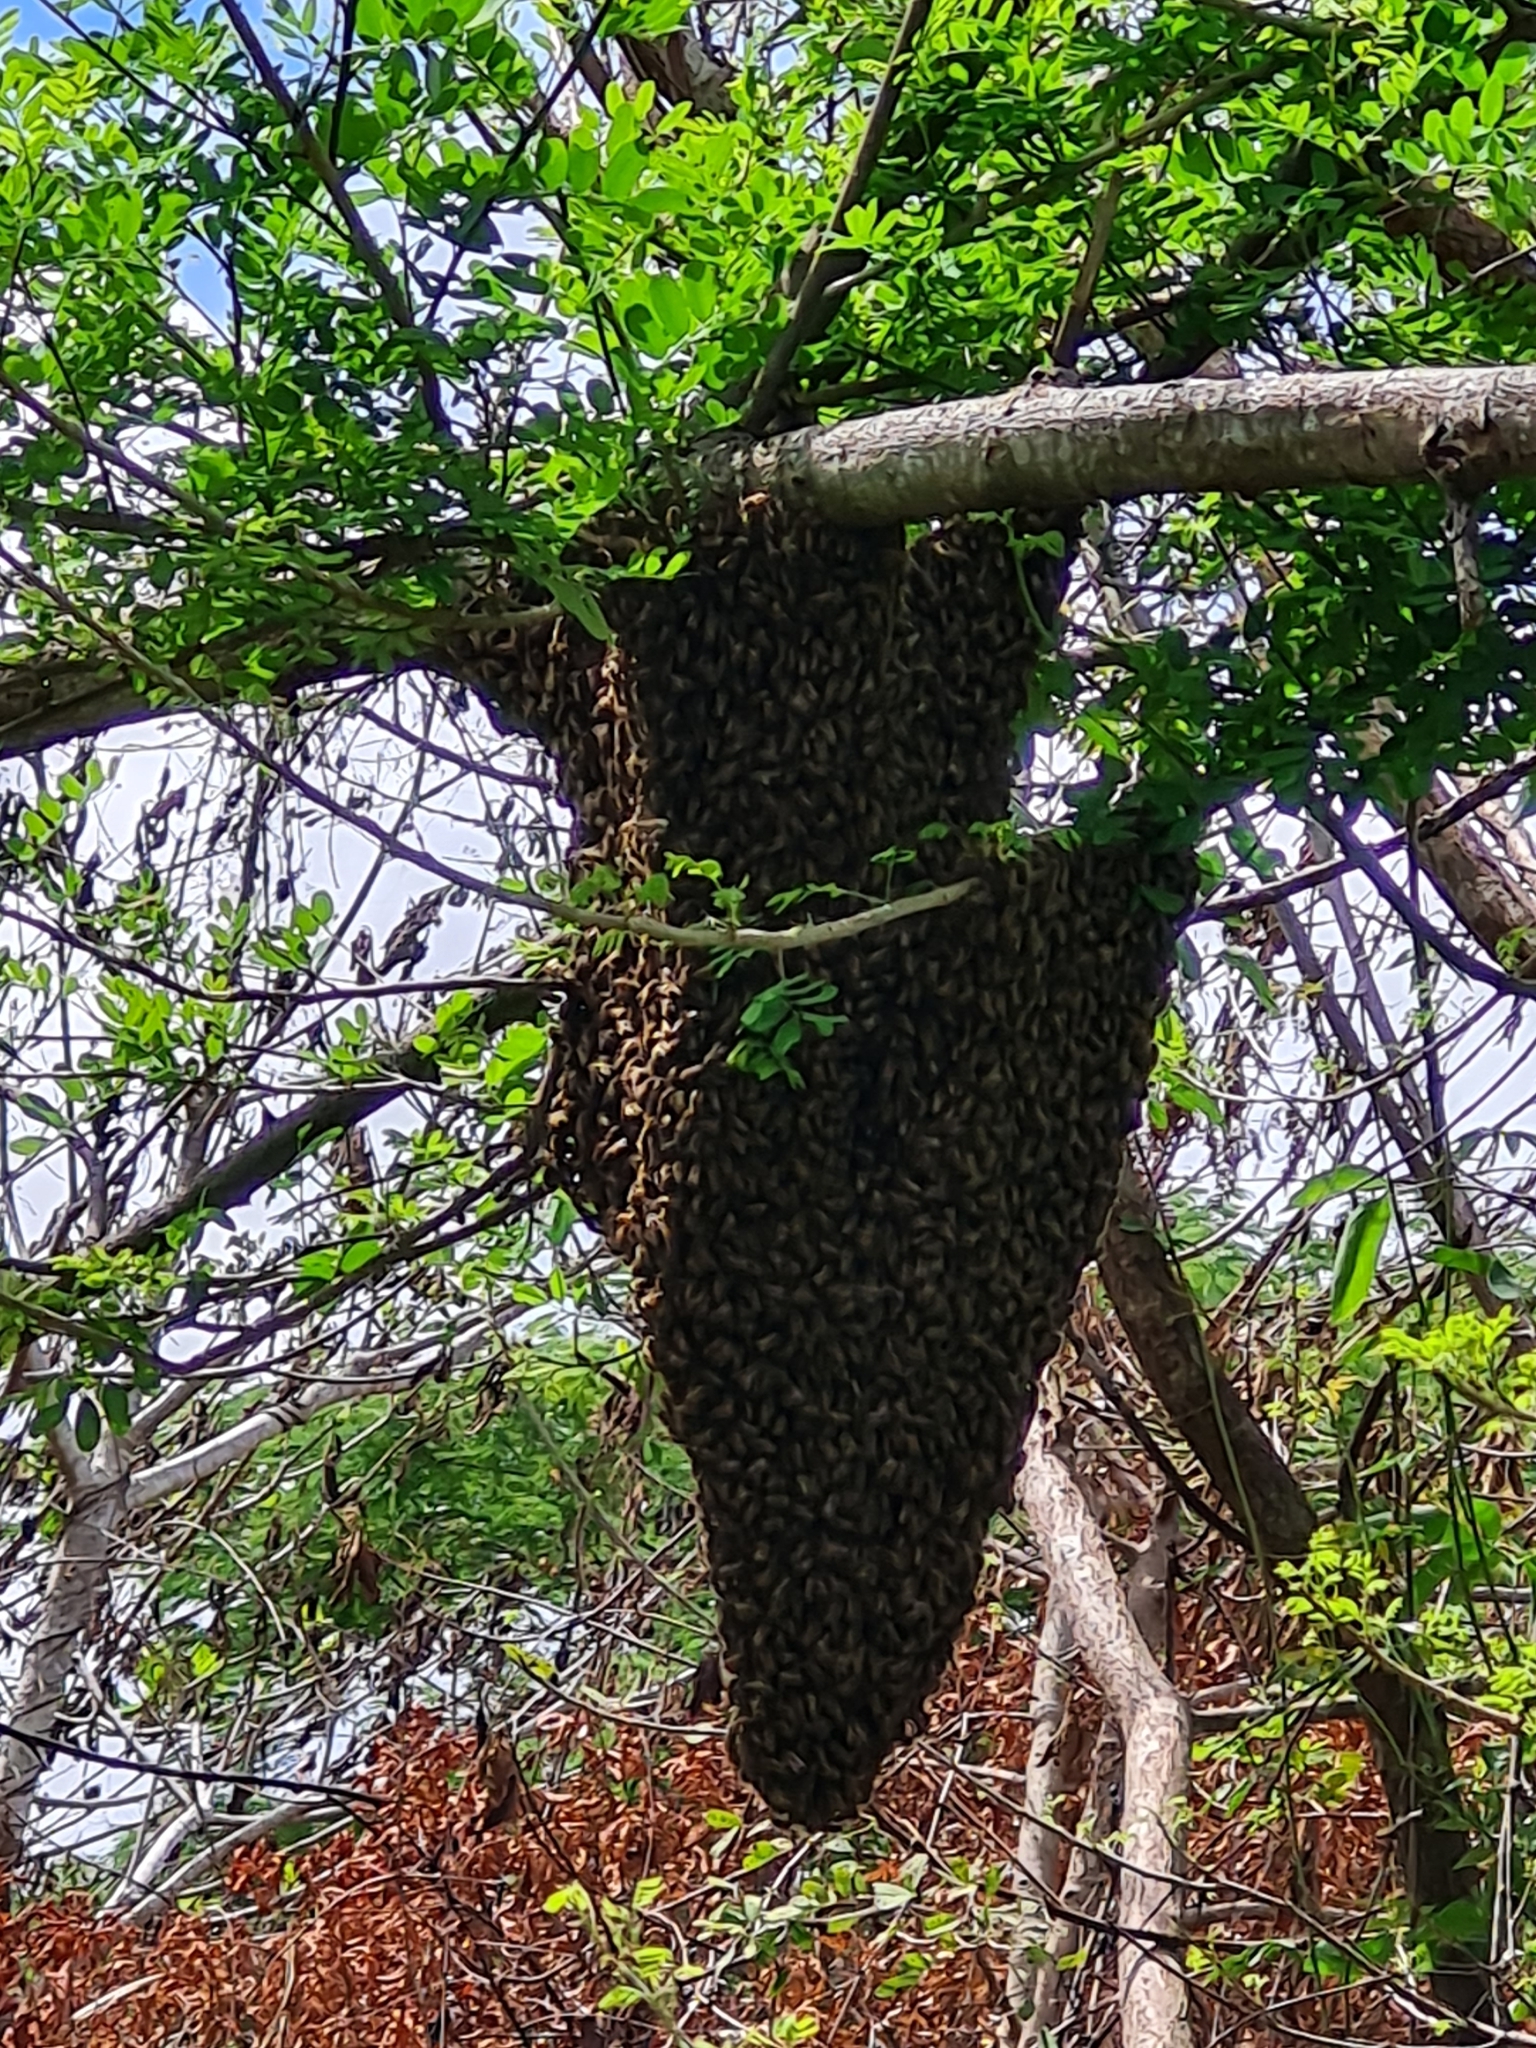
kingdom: Animalia
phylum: Arthropoda
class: Insecta
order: Hymenoptera
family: Apidae
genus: Apis
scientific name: Apis mellifera
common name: Honey bee
